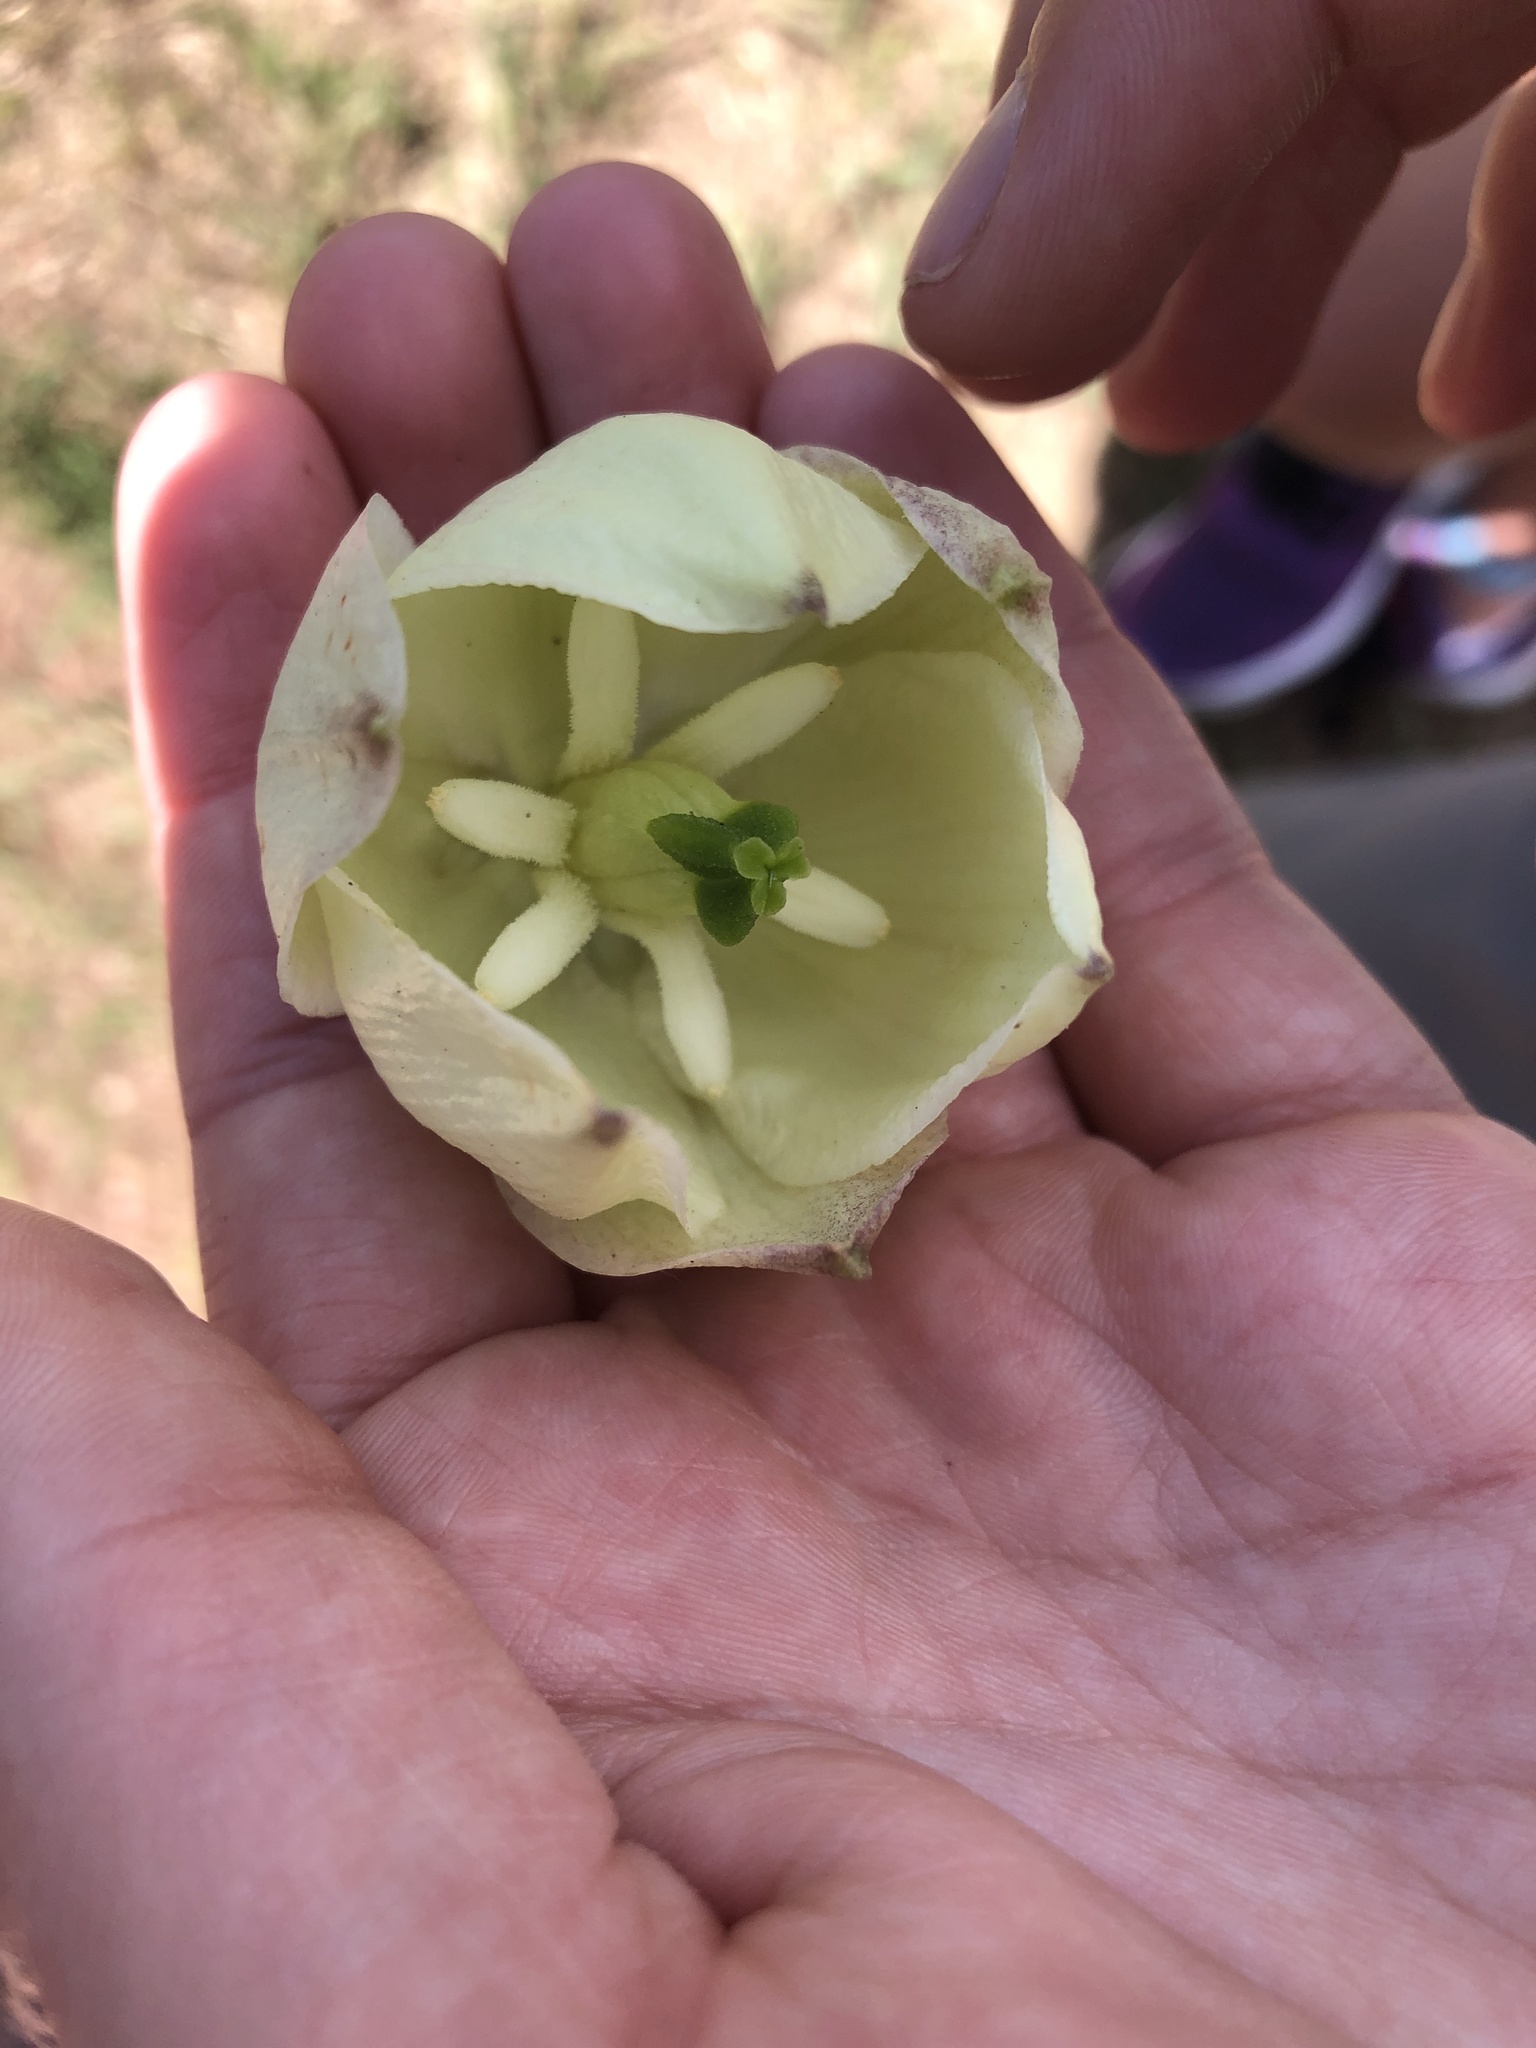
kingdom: Plantae
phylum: Tracheophyta
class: Liliopsida
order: Asparagales
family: Asparagaceae
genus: Yucca
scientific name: Yucca glauca
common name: Great plains yucca
